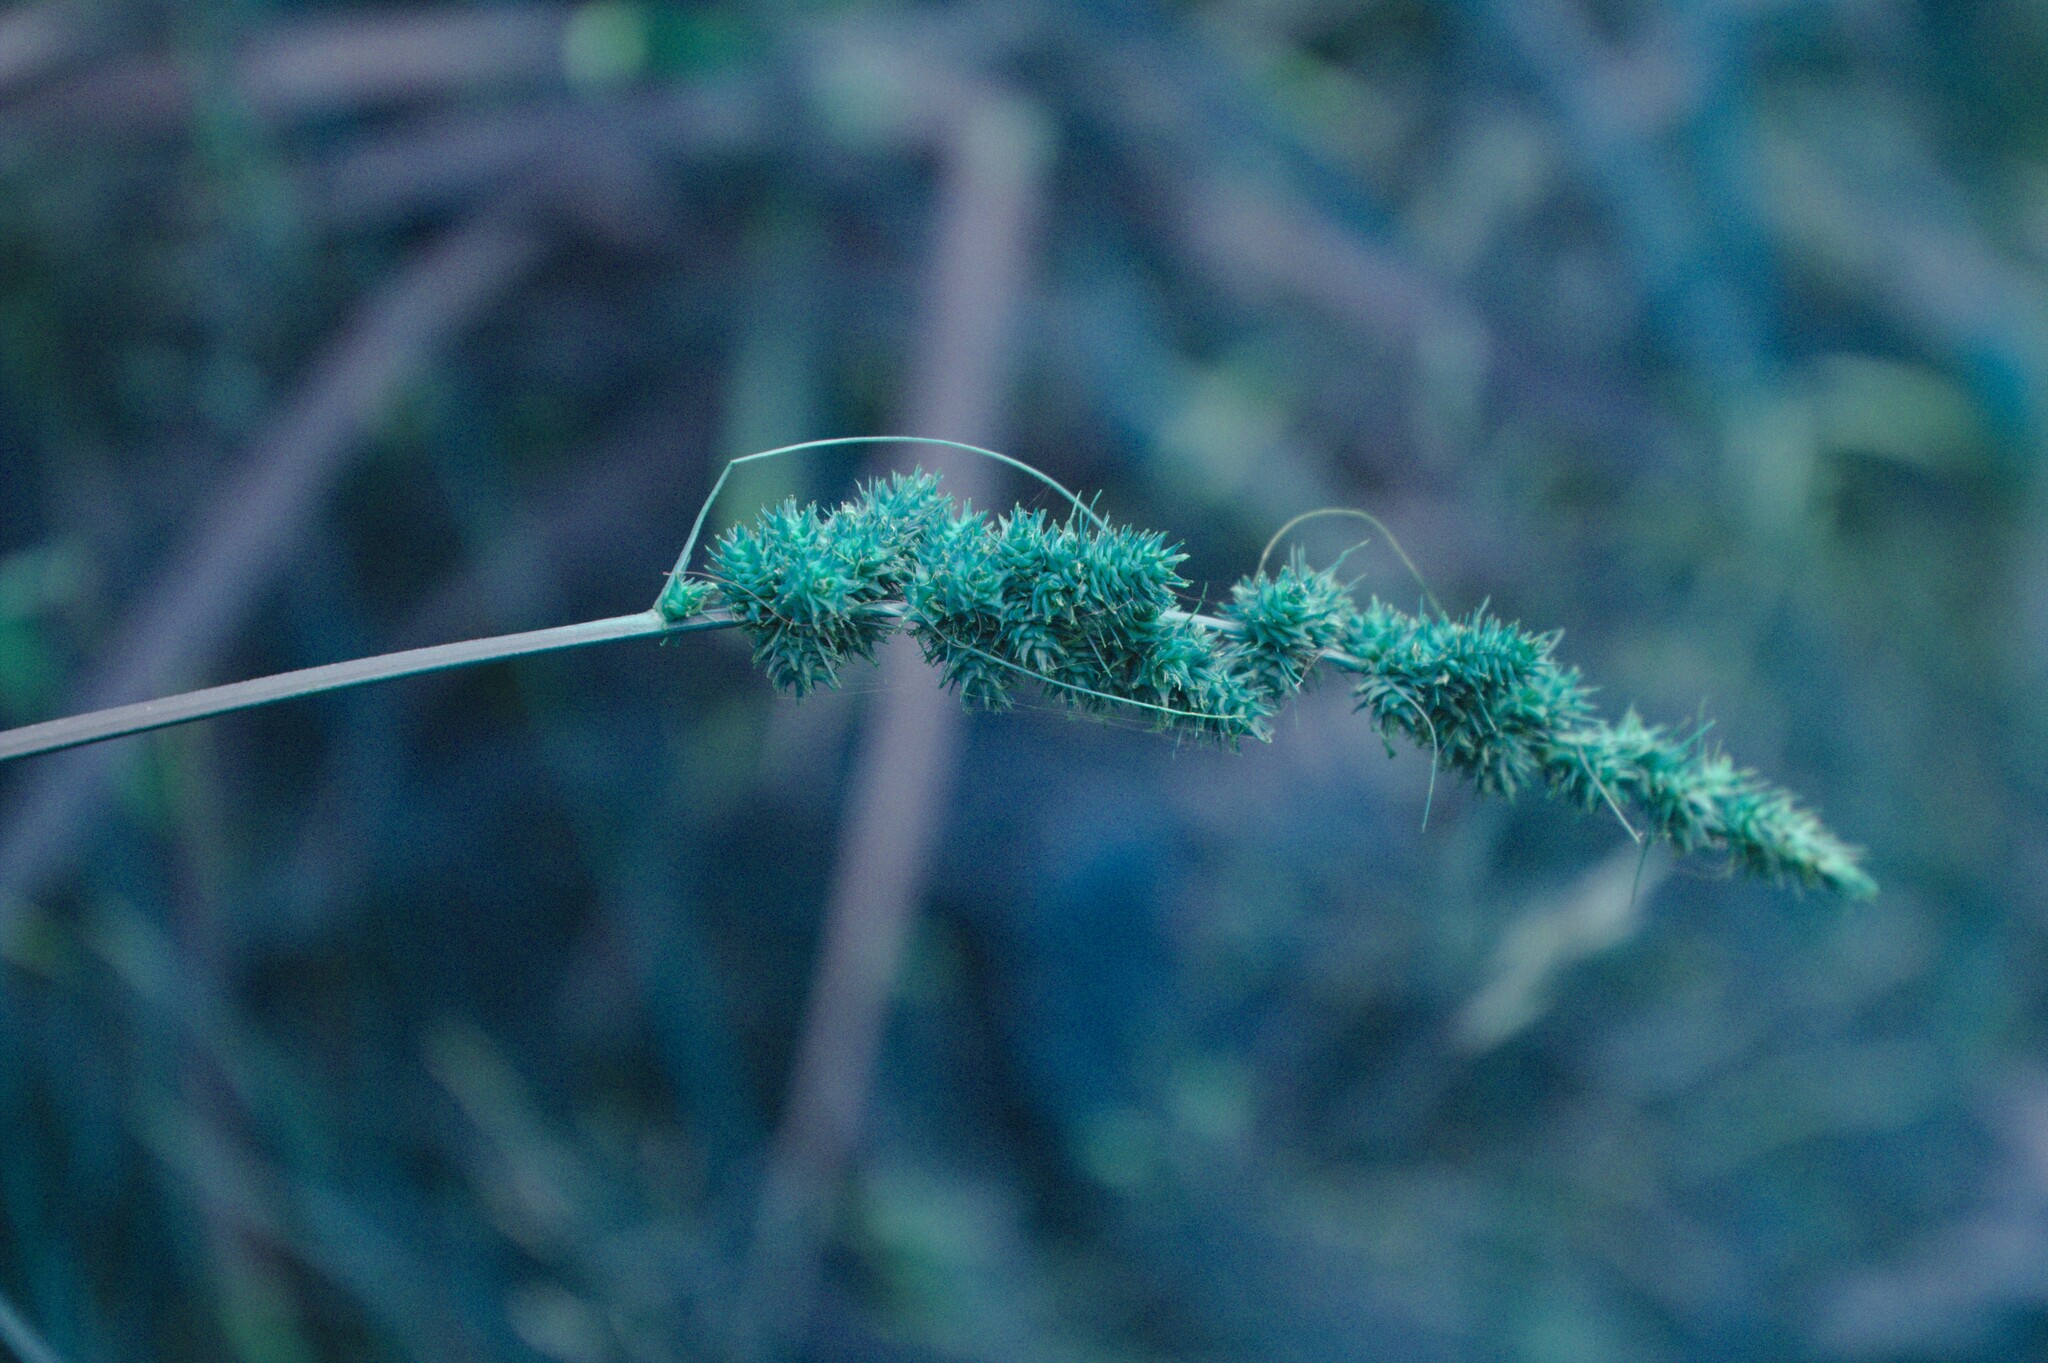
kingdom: Plantae
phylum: Tracheophyta
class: Liliopsida
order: Poales
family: Cyperaceae
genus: Carex
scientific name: Carex vulpinoidea
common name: American fox-sedge
